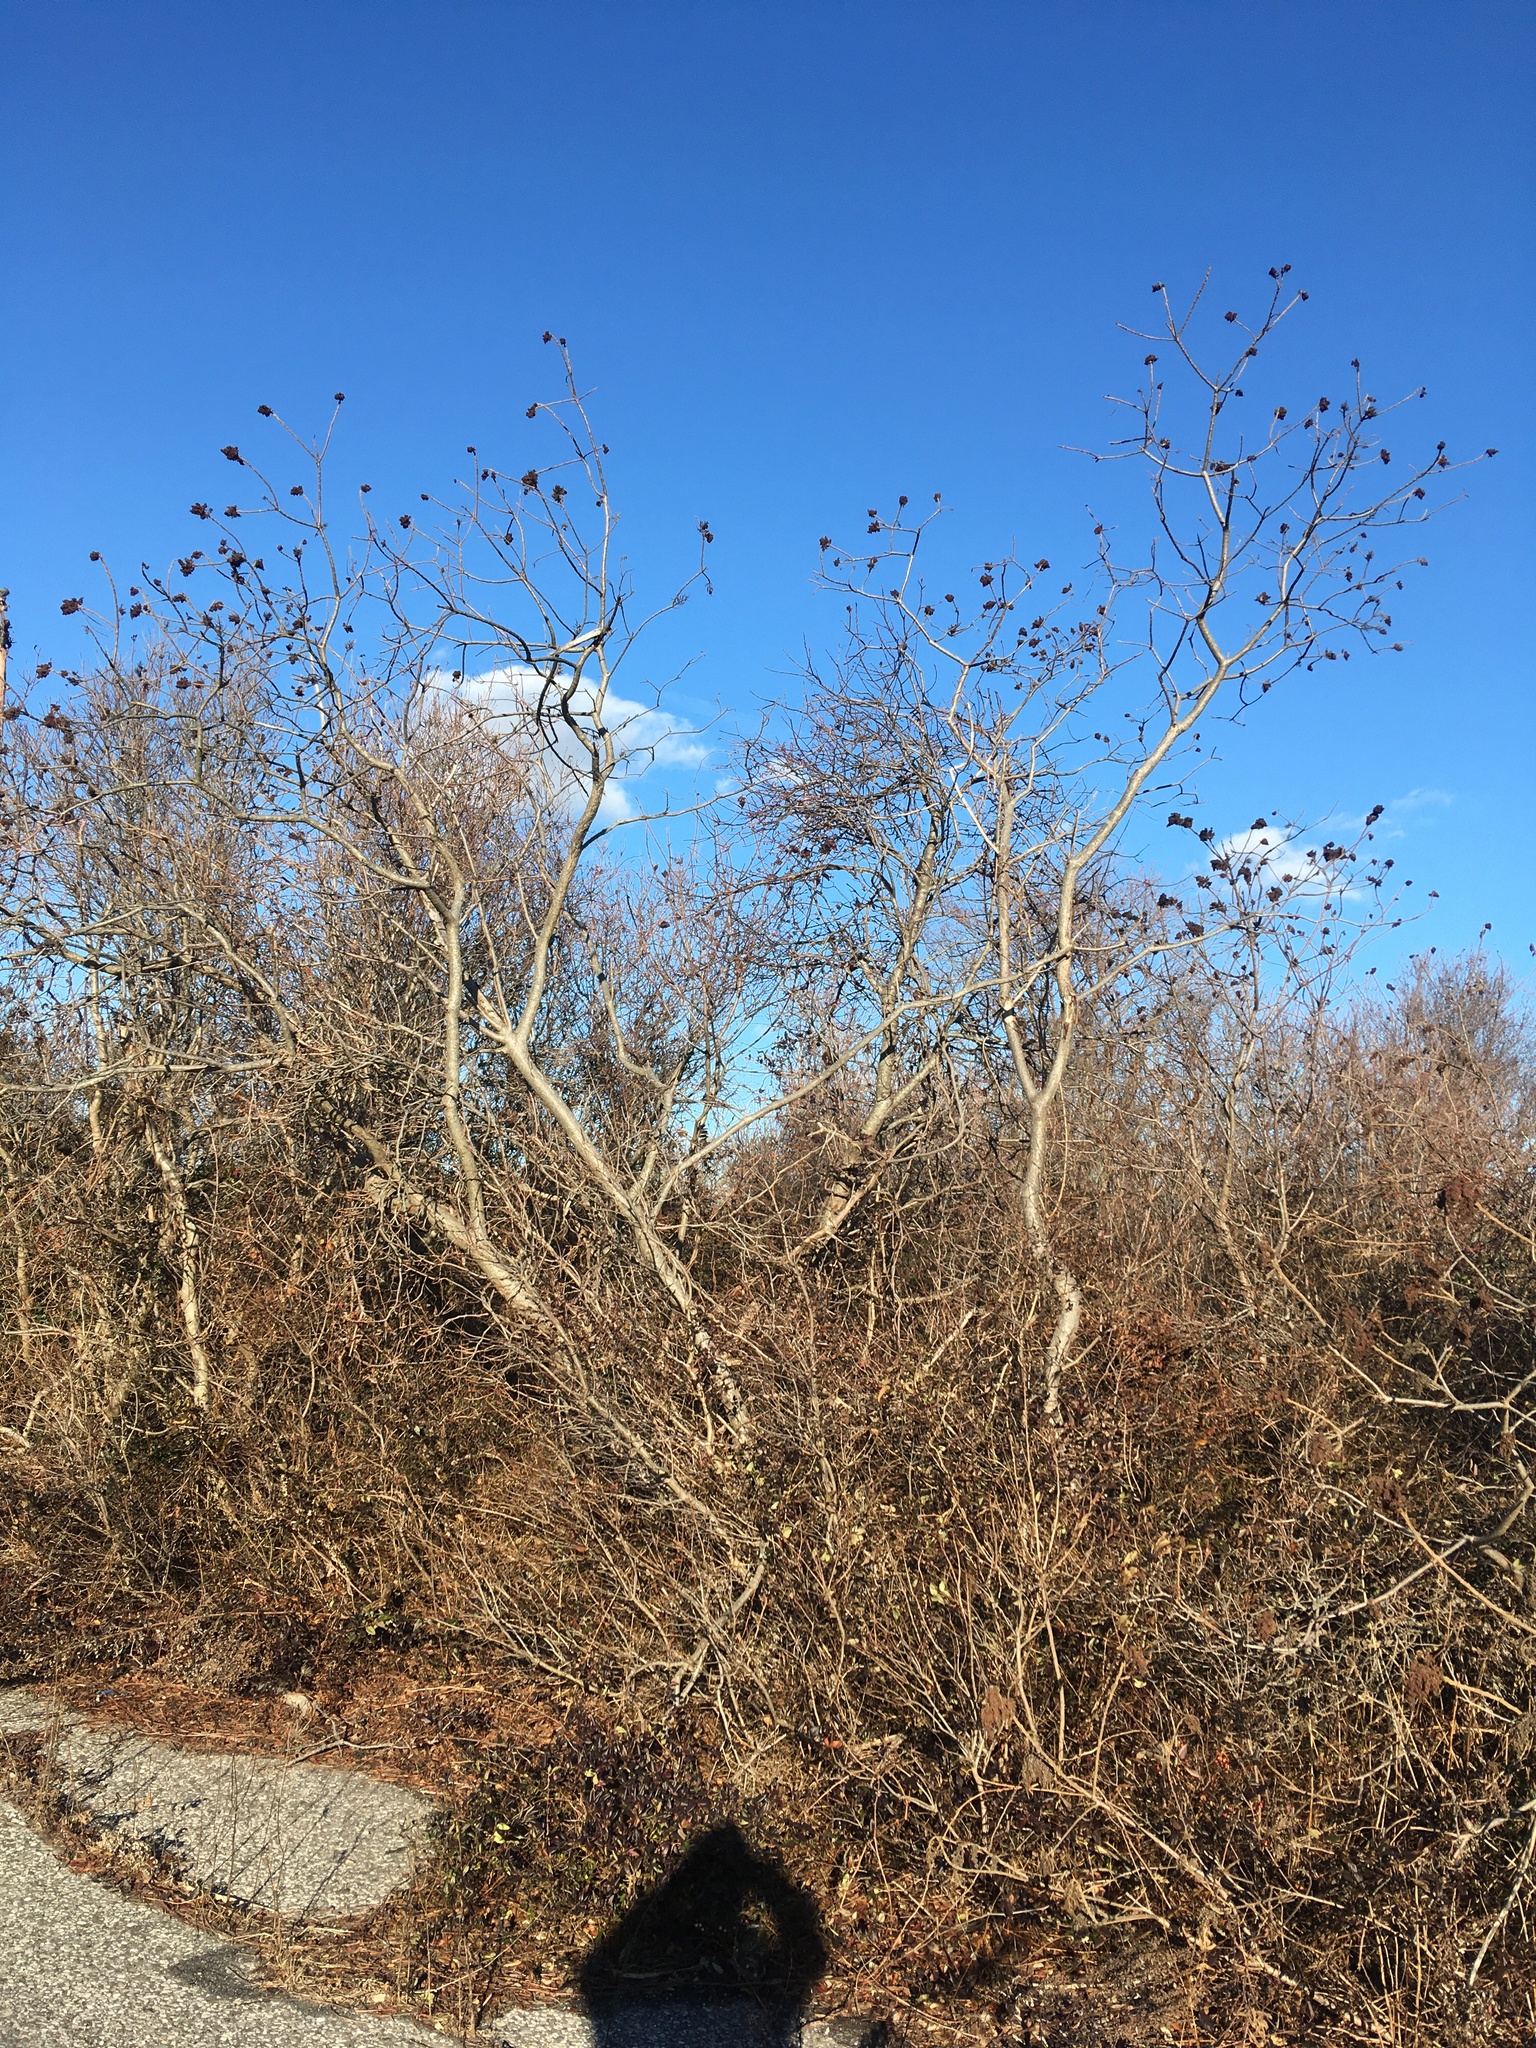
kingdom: Plantae
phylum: Tracheophyta
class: Magnoliopsida
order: Sapindales
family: Anacardiaceae
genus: Rhus
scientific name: Rhus copallina
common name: Shining sumac
